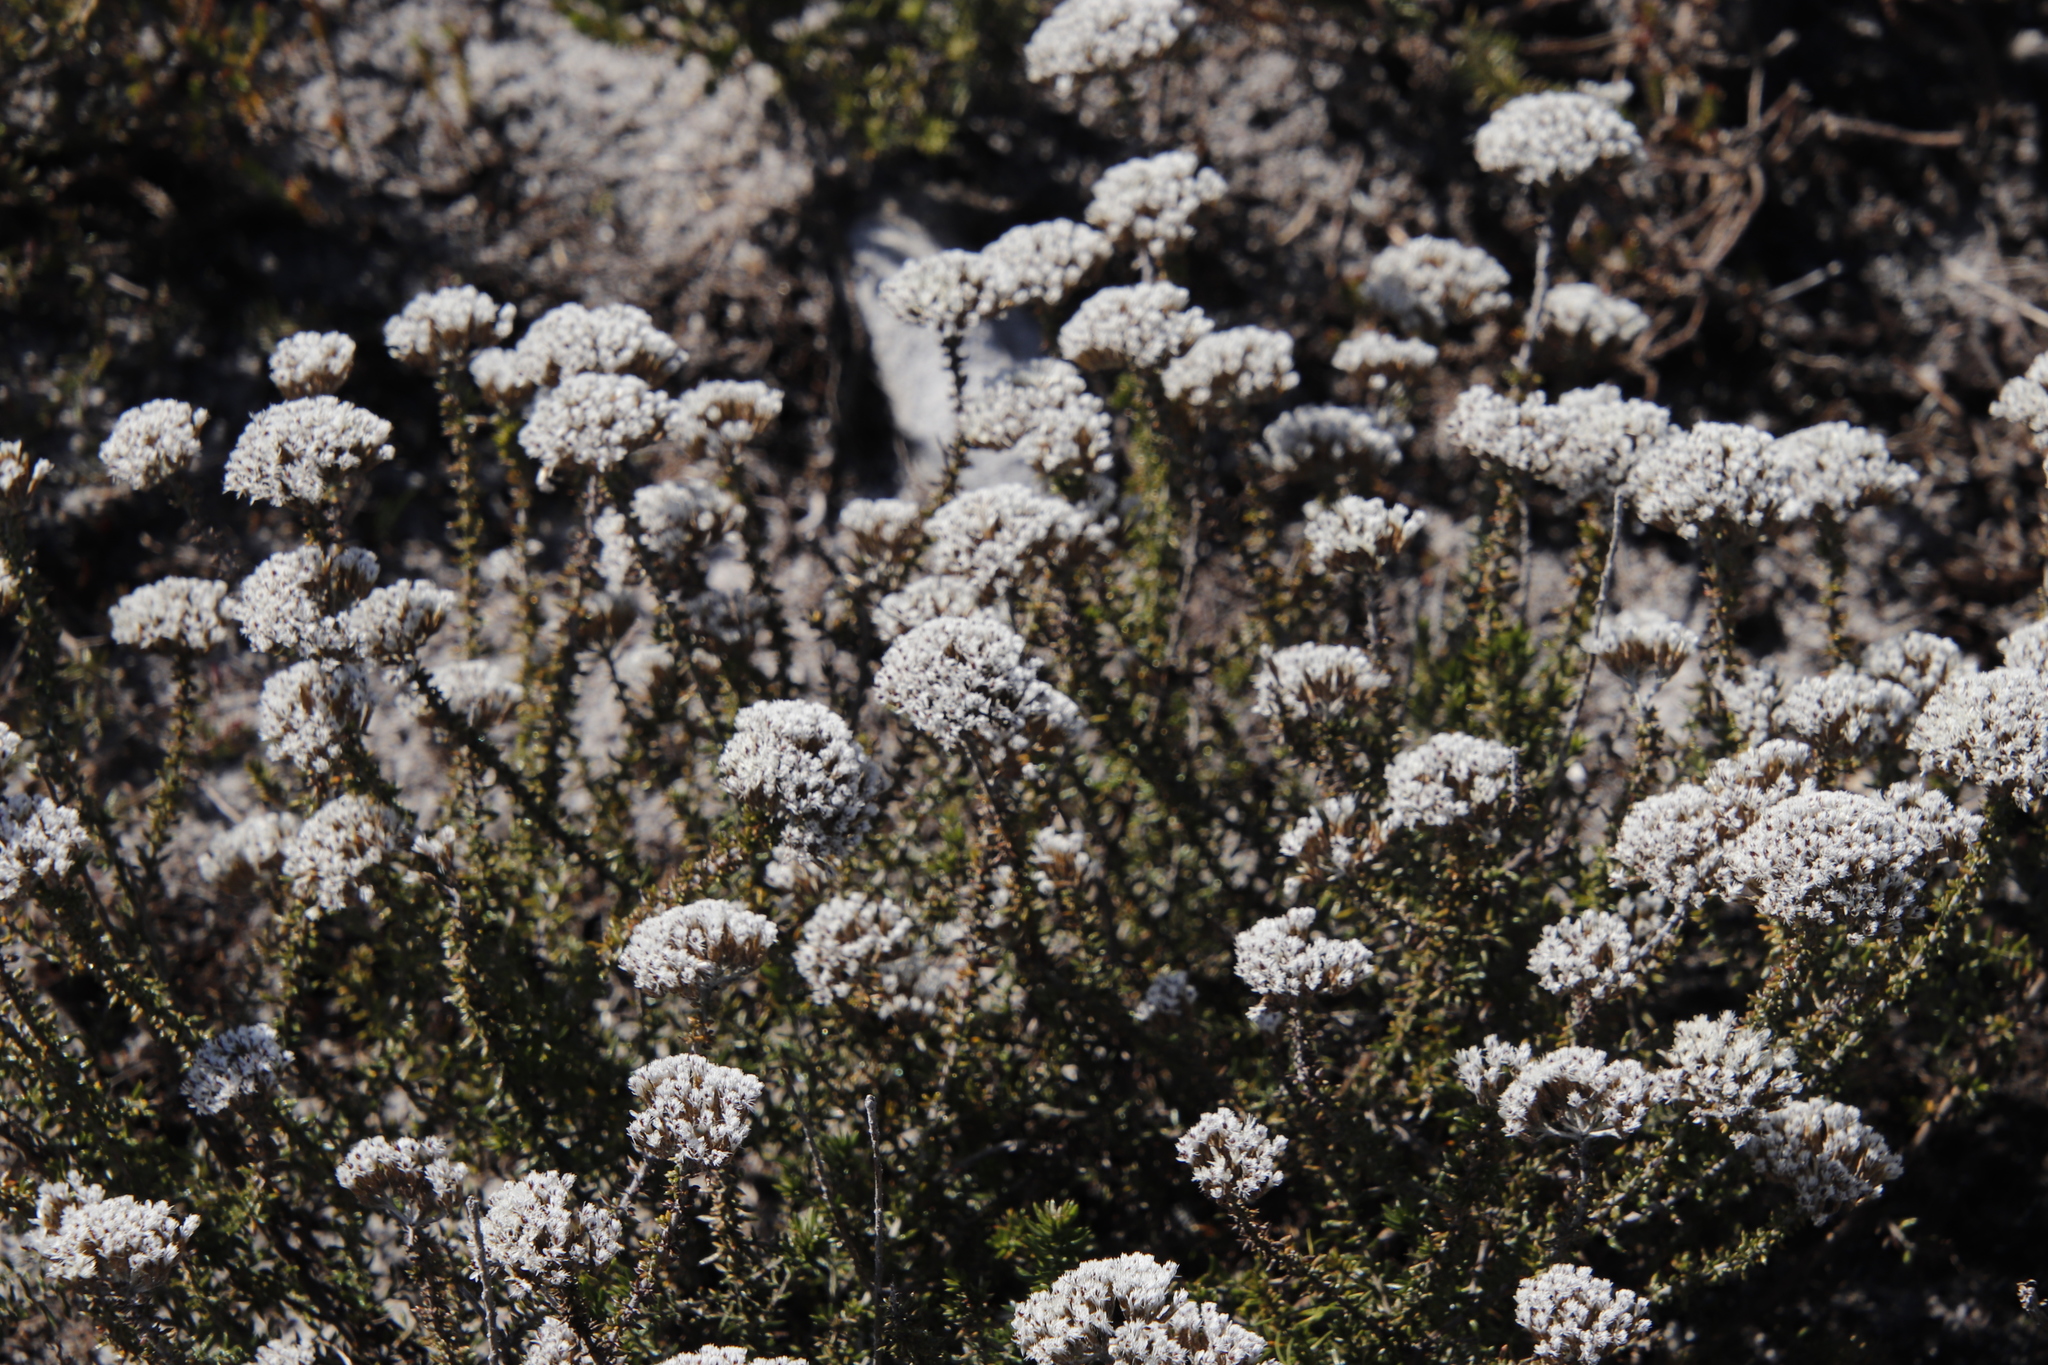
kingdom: Plantae
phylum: Tracheophyta
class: Magnoliopsida
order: Asterales
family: Asteraceae
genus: Metalasia
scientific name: Metalasia densa
